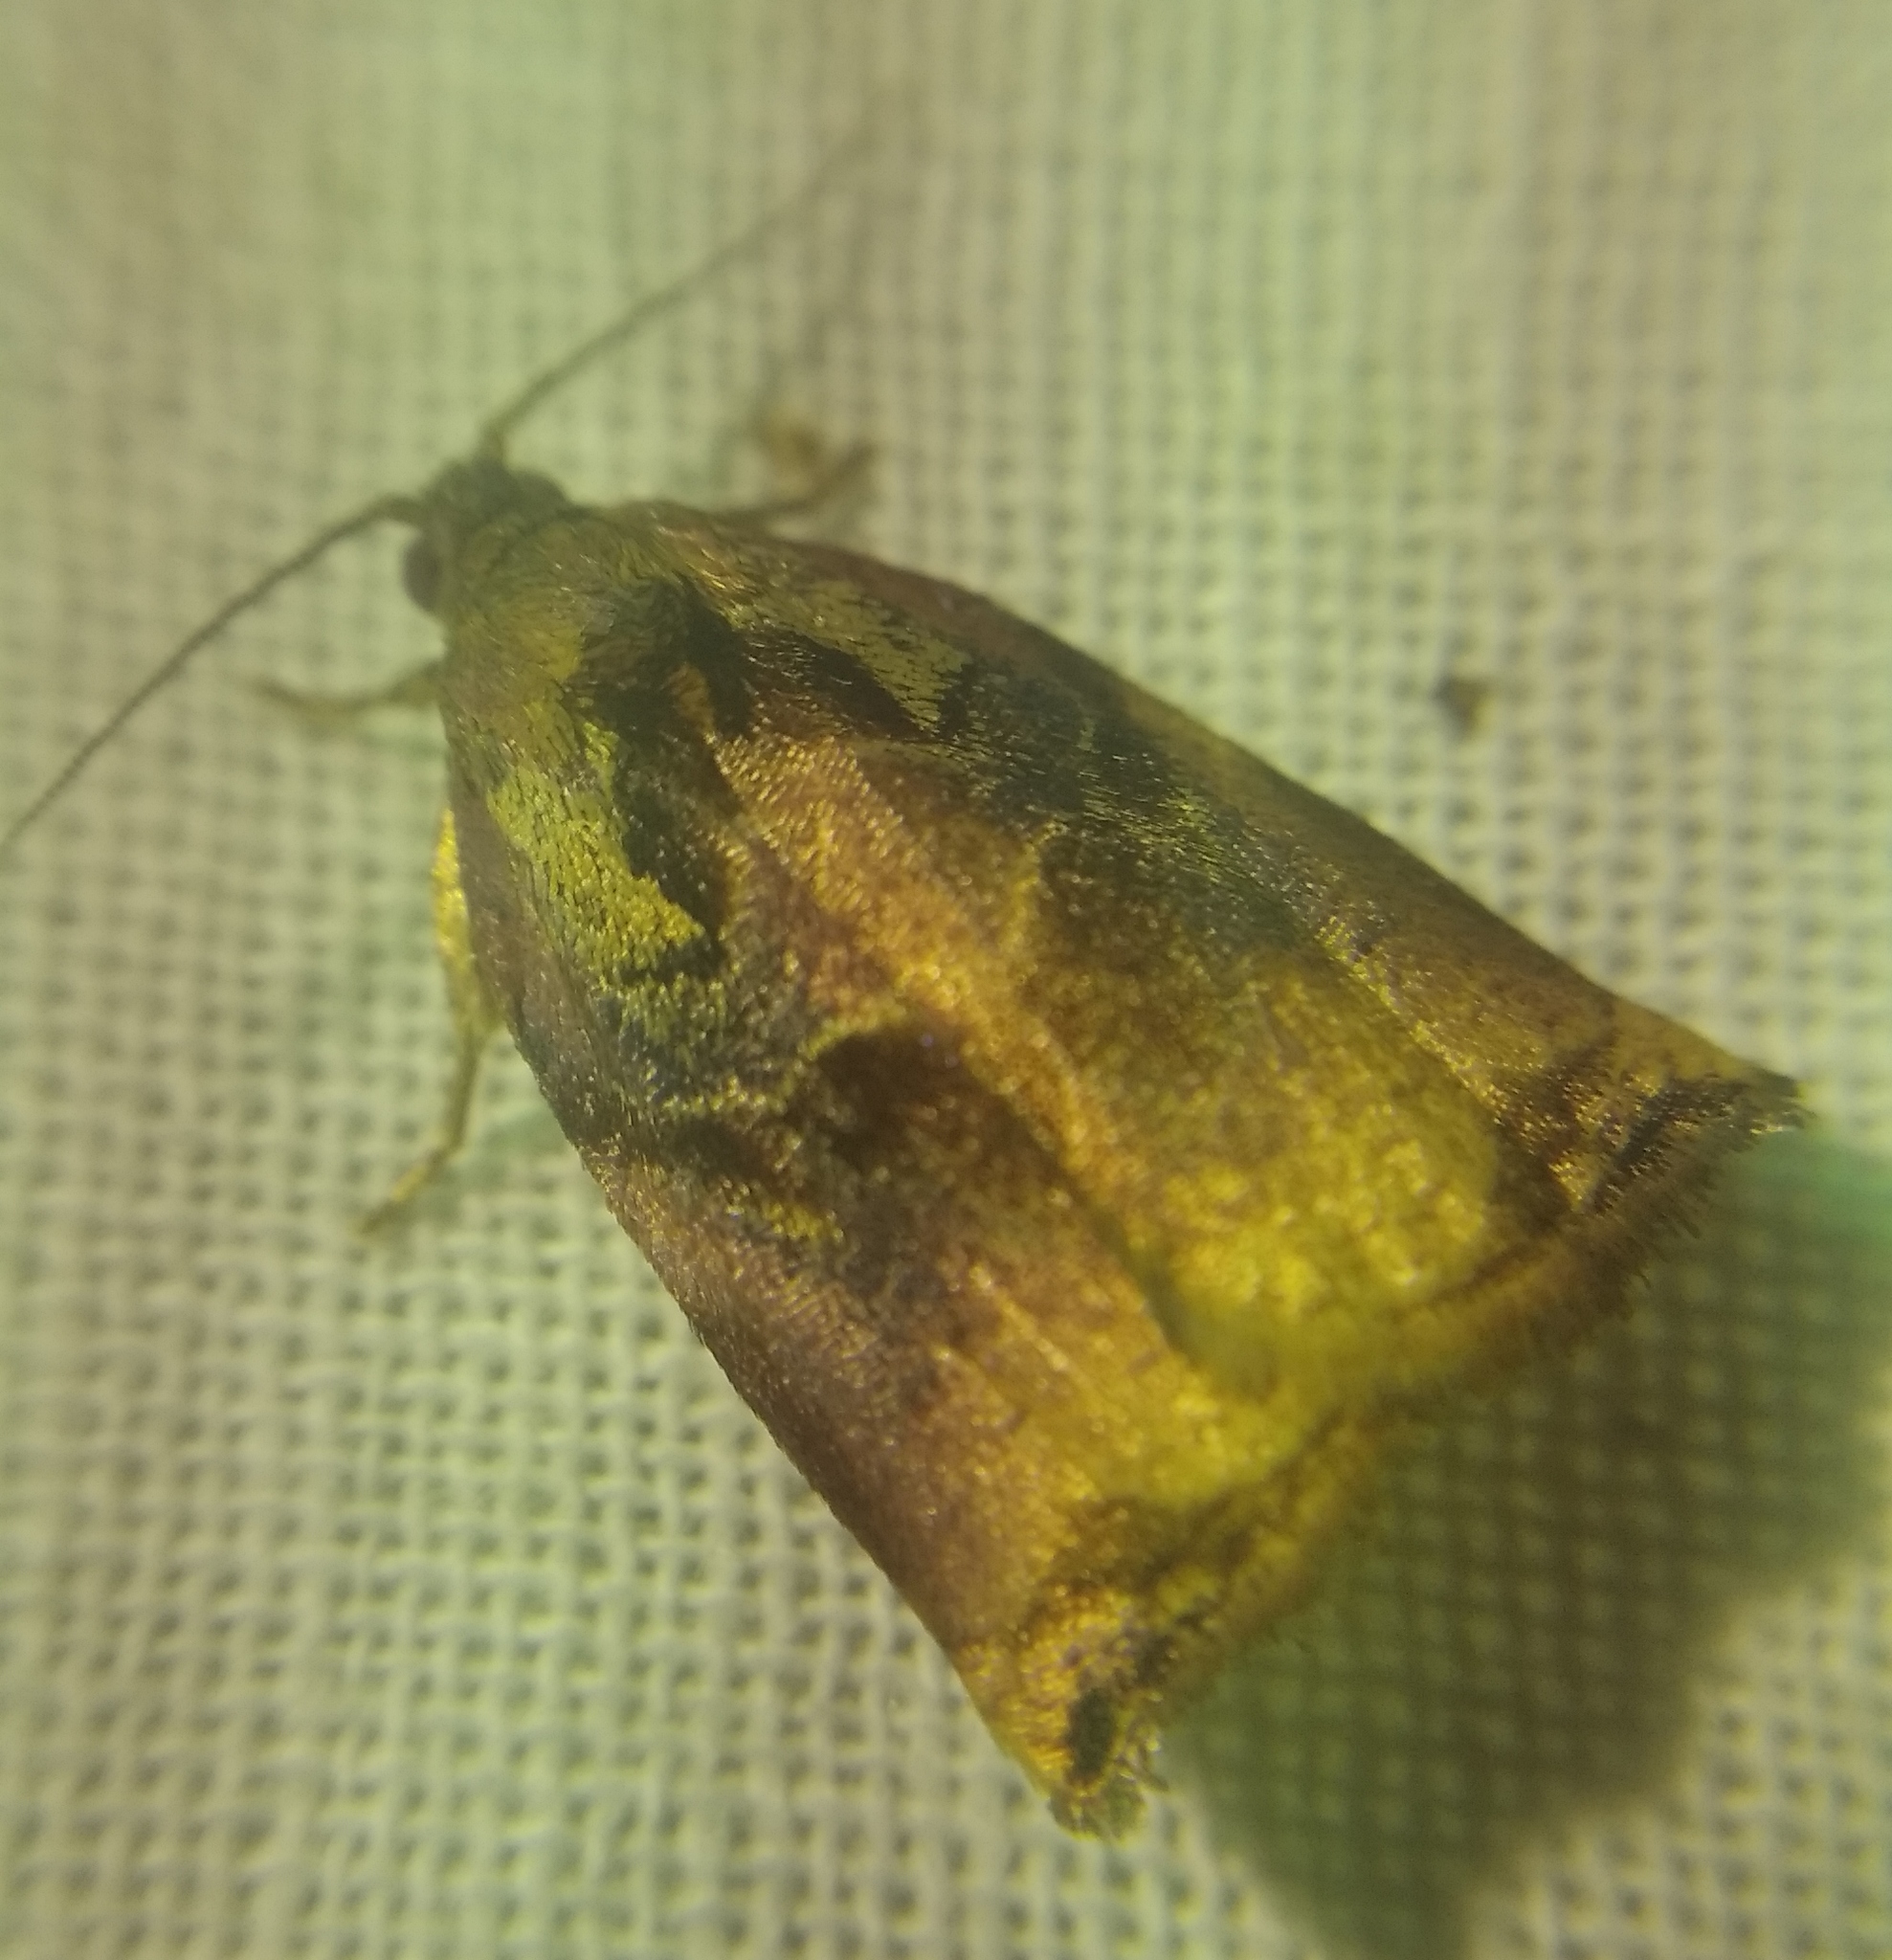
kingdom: Animalia
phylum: Arthropoda
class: Insecta
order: Lepidoptera
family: Tortricidae
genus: Archips
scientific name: Archips podana
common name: Large fruit-tree tortrix
